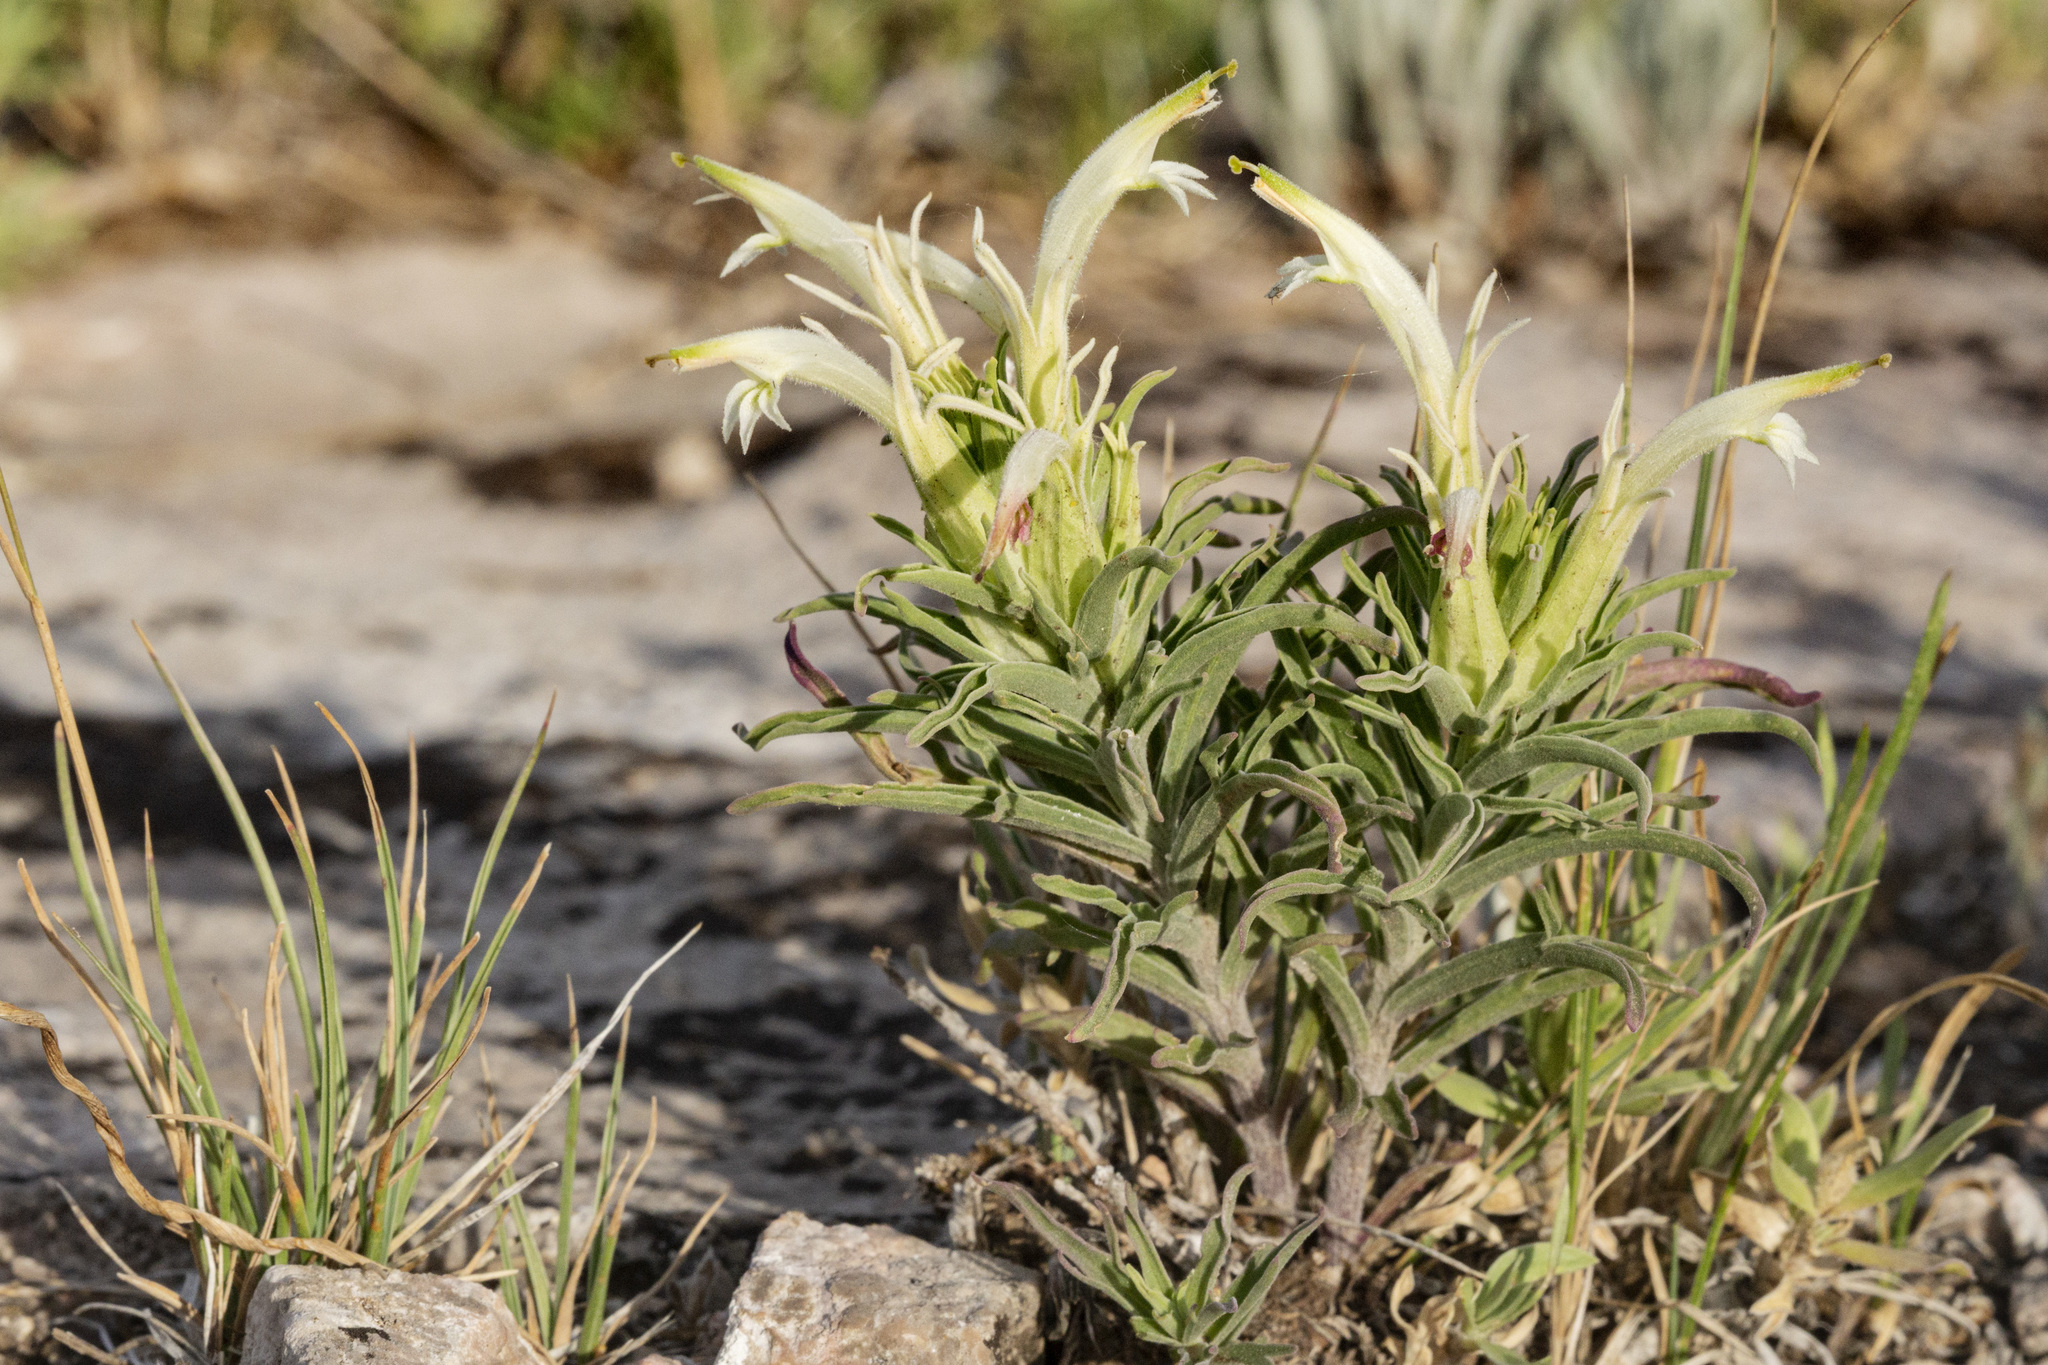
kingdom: Plantae
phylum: Tracheophyta
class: Magnoliopsida
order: Lamiales
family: Orobanchaceae
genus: Castilleja
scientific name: Castilleja sessiliflora
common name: Downy paintbrush
